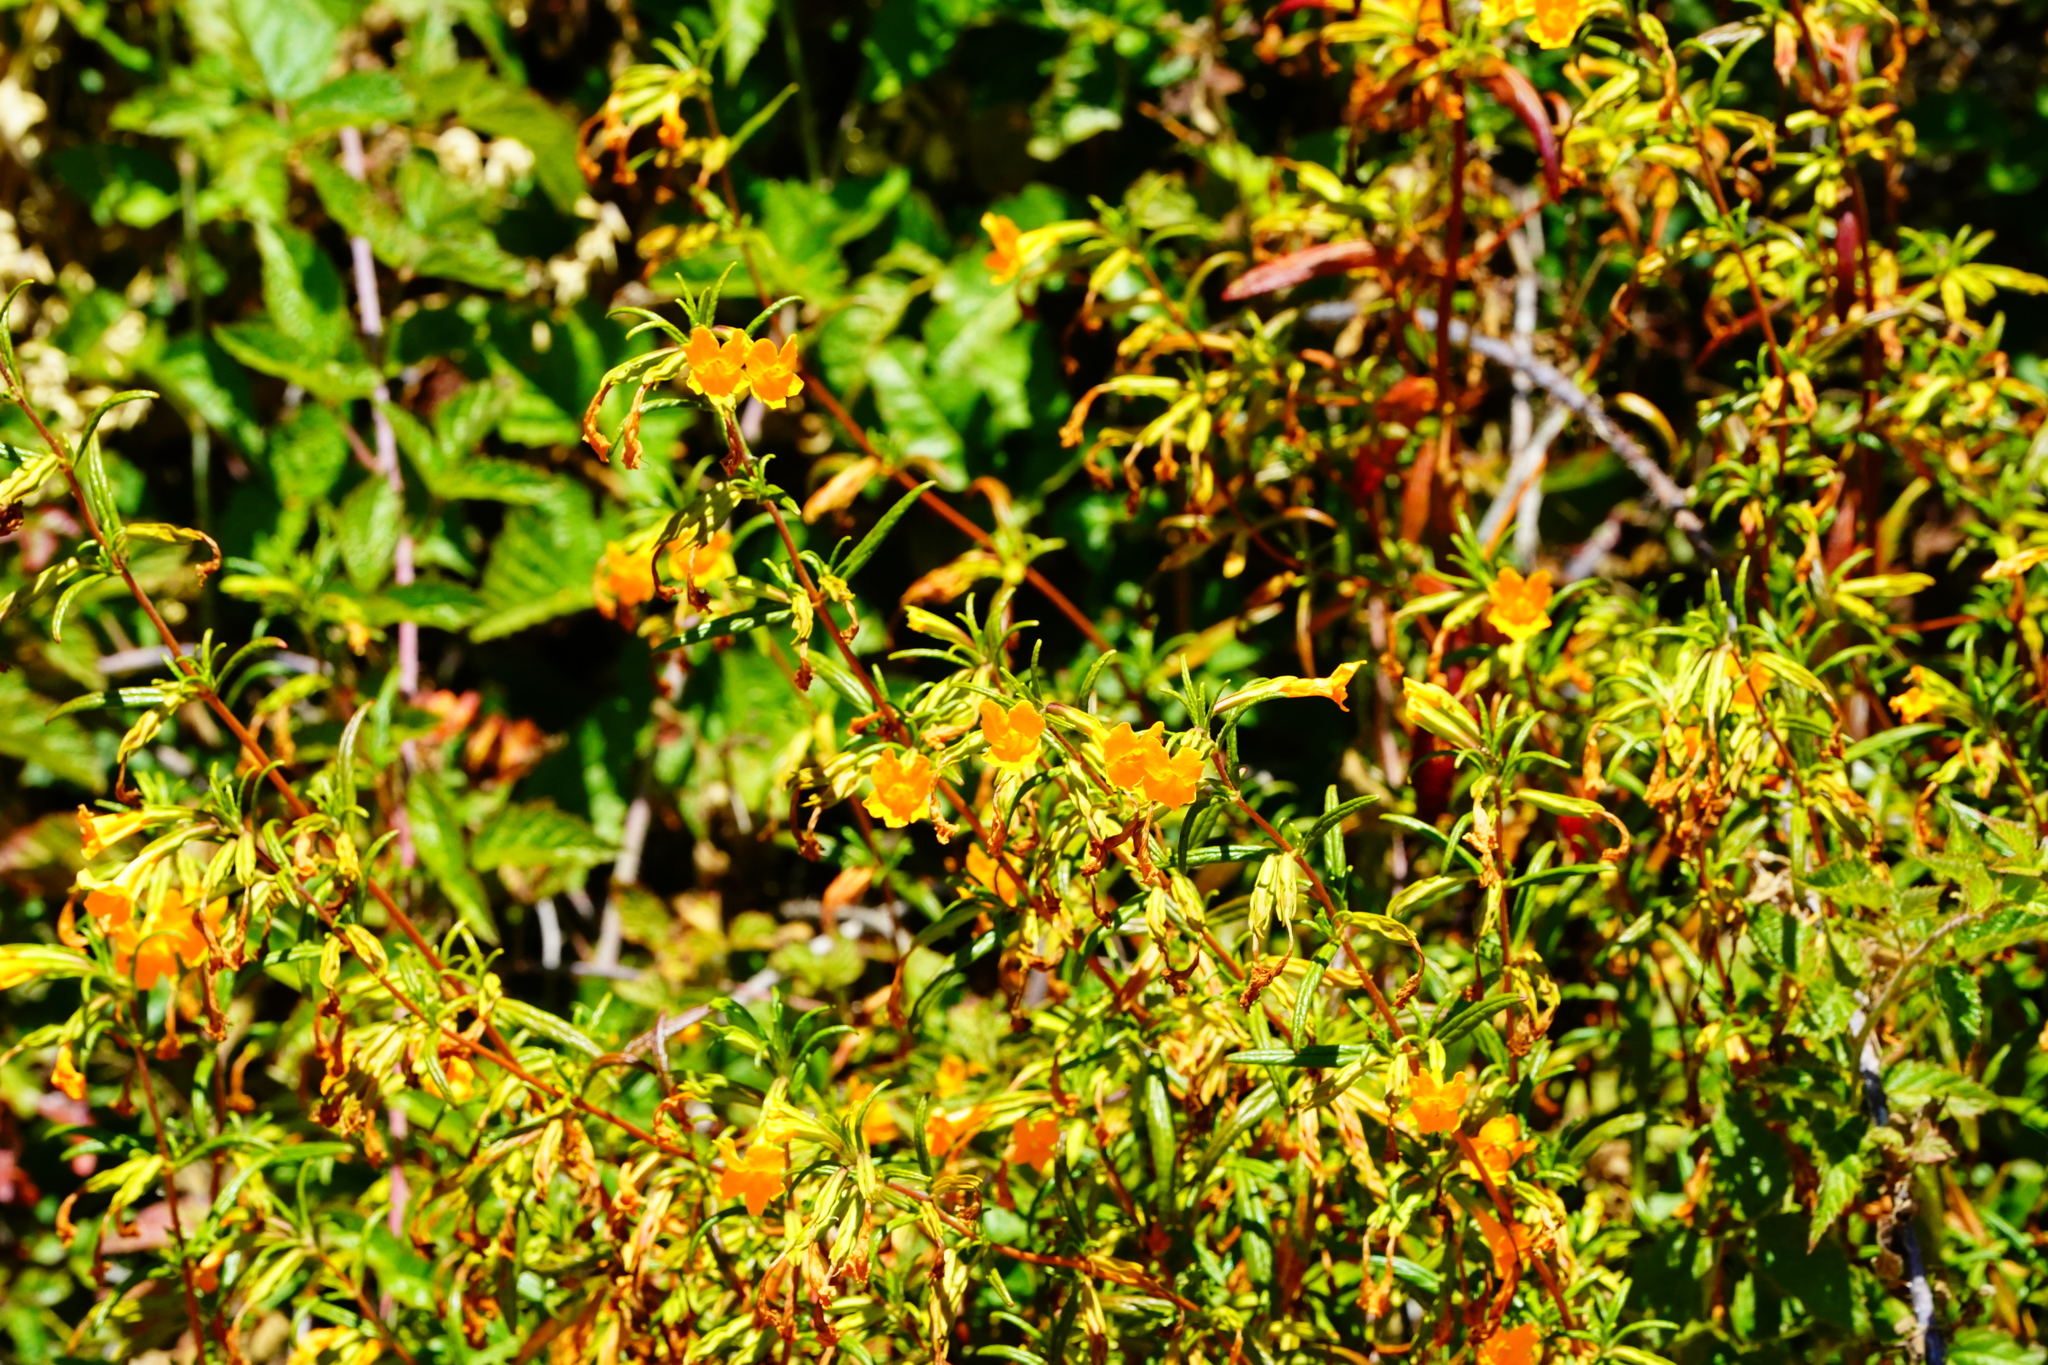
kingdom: Plantae
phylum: Tracheophyta
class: Magnoliopsida
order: Lamiales
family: Phrymaceae
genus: Diplacus
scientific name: Diplacus aurantiacus
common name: Bush monkey-flower
